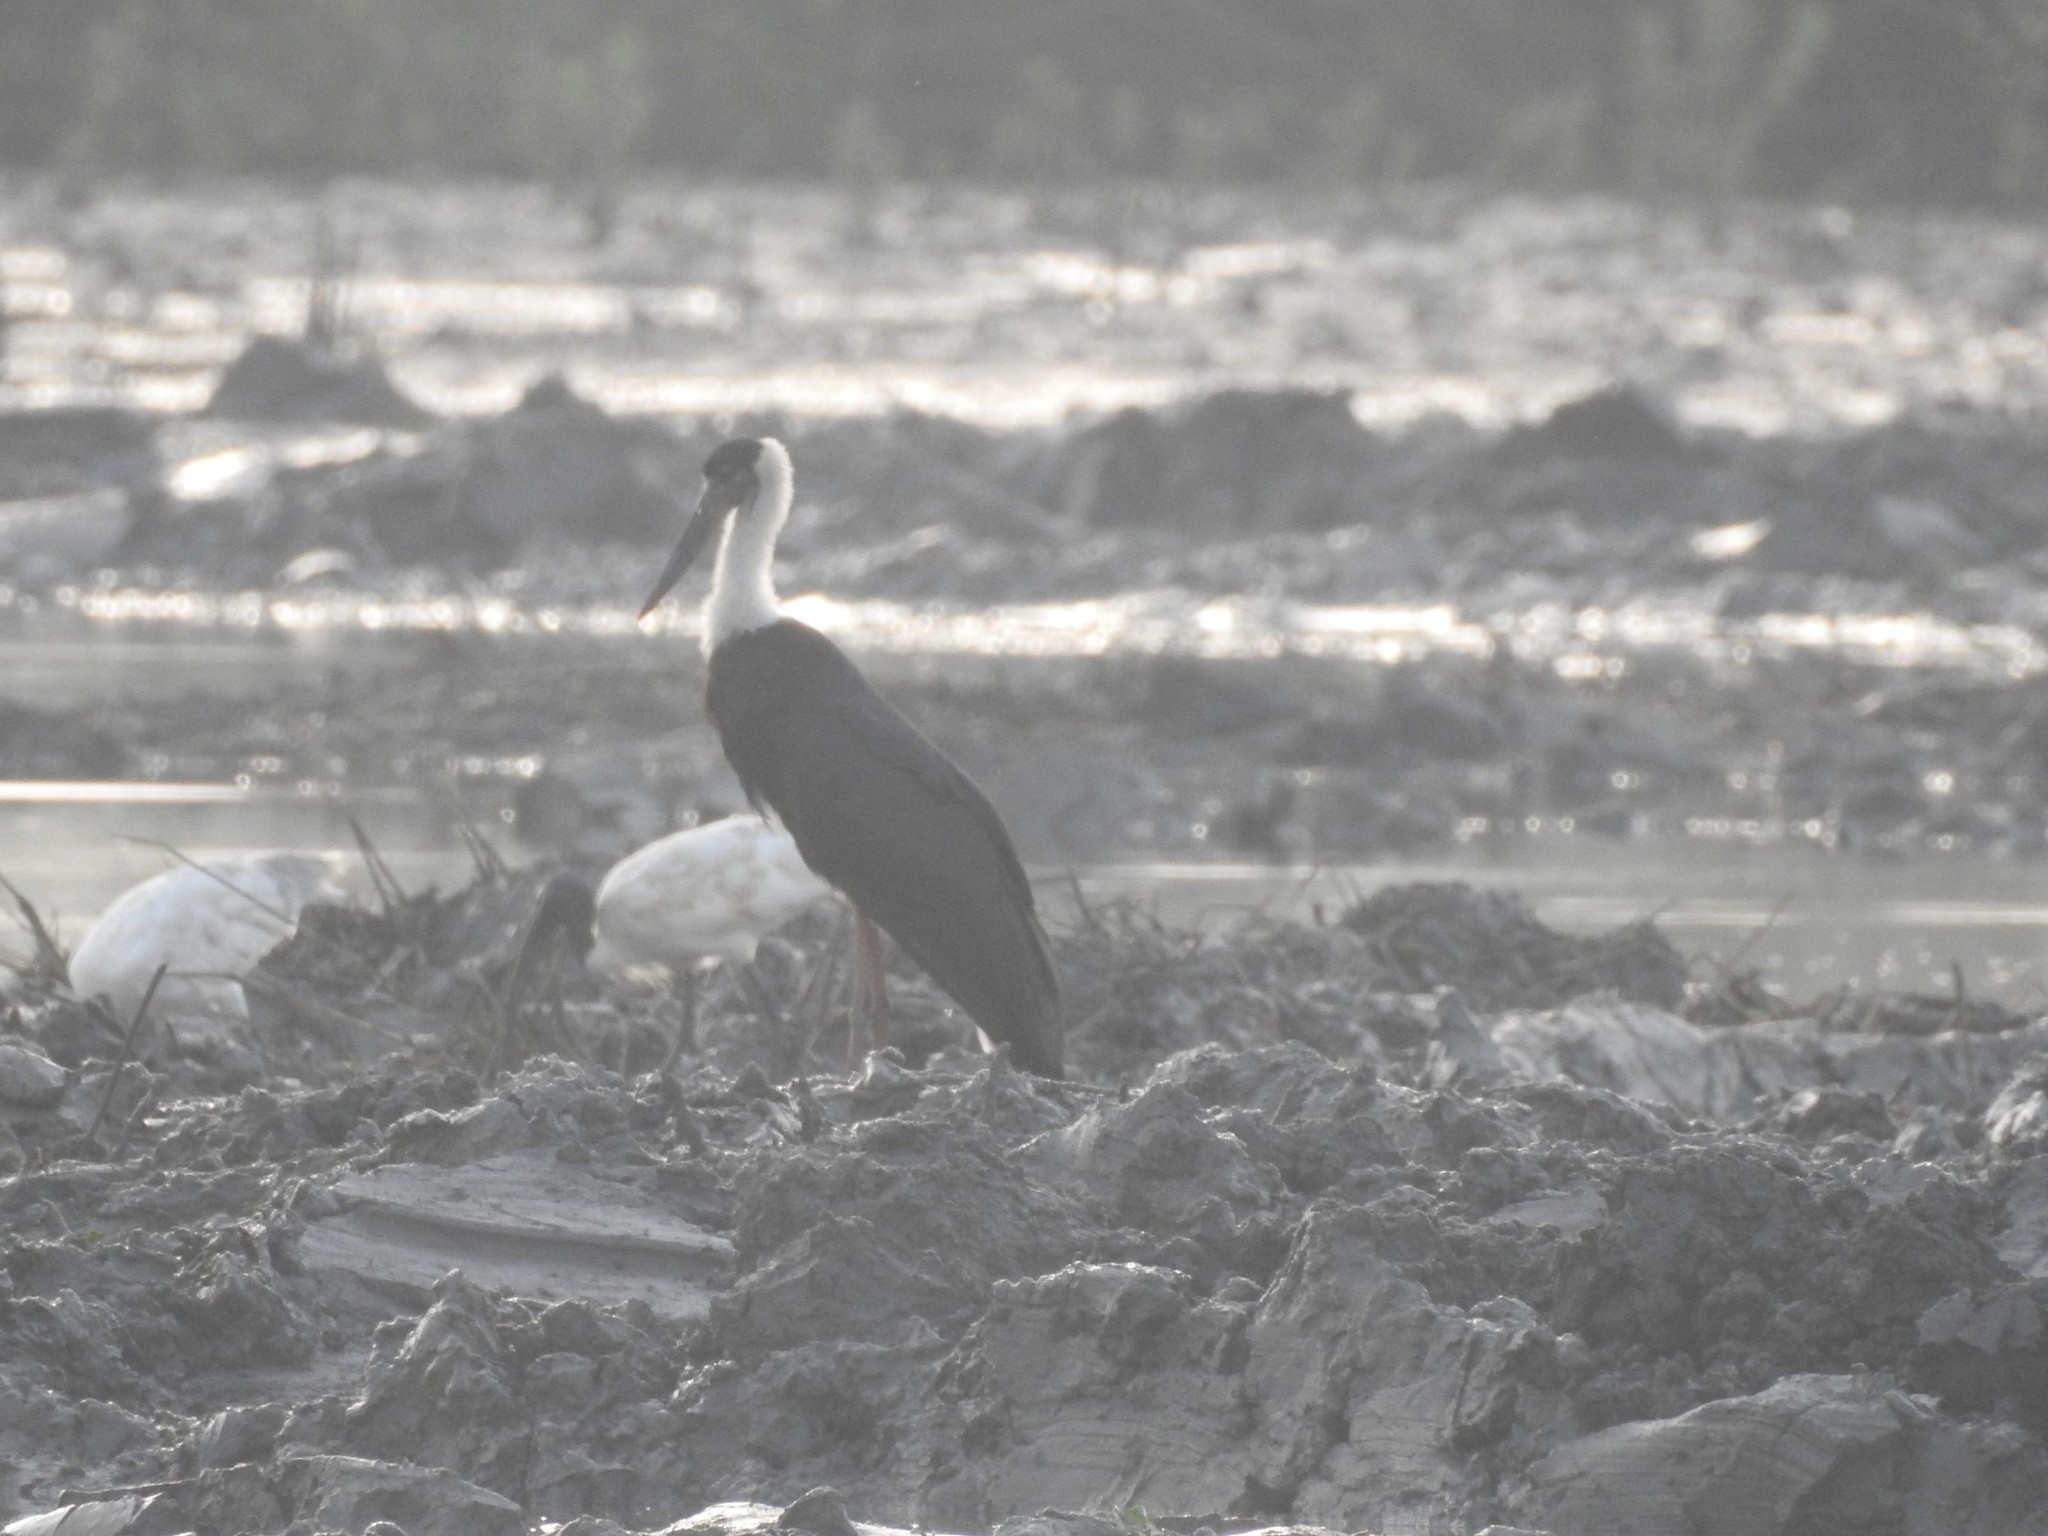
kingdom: Animalia
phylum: Chordata
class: Aves
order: Ciconiiformes
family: Ciconiidae
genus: Ciconia
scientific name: Ciconia episcopus
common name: Woolly-necked stork
